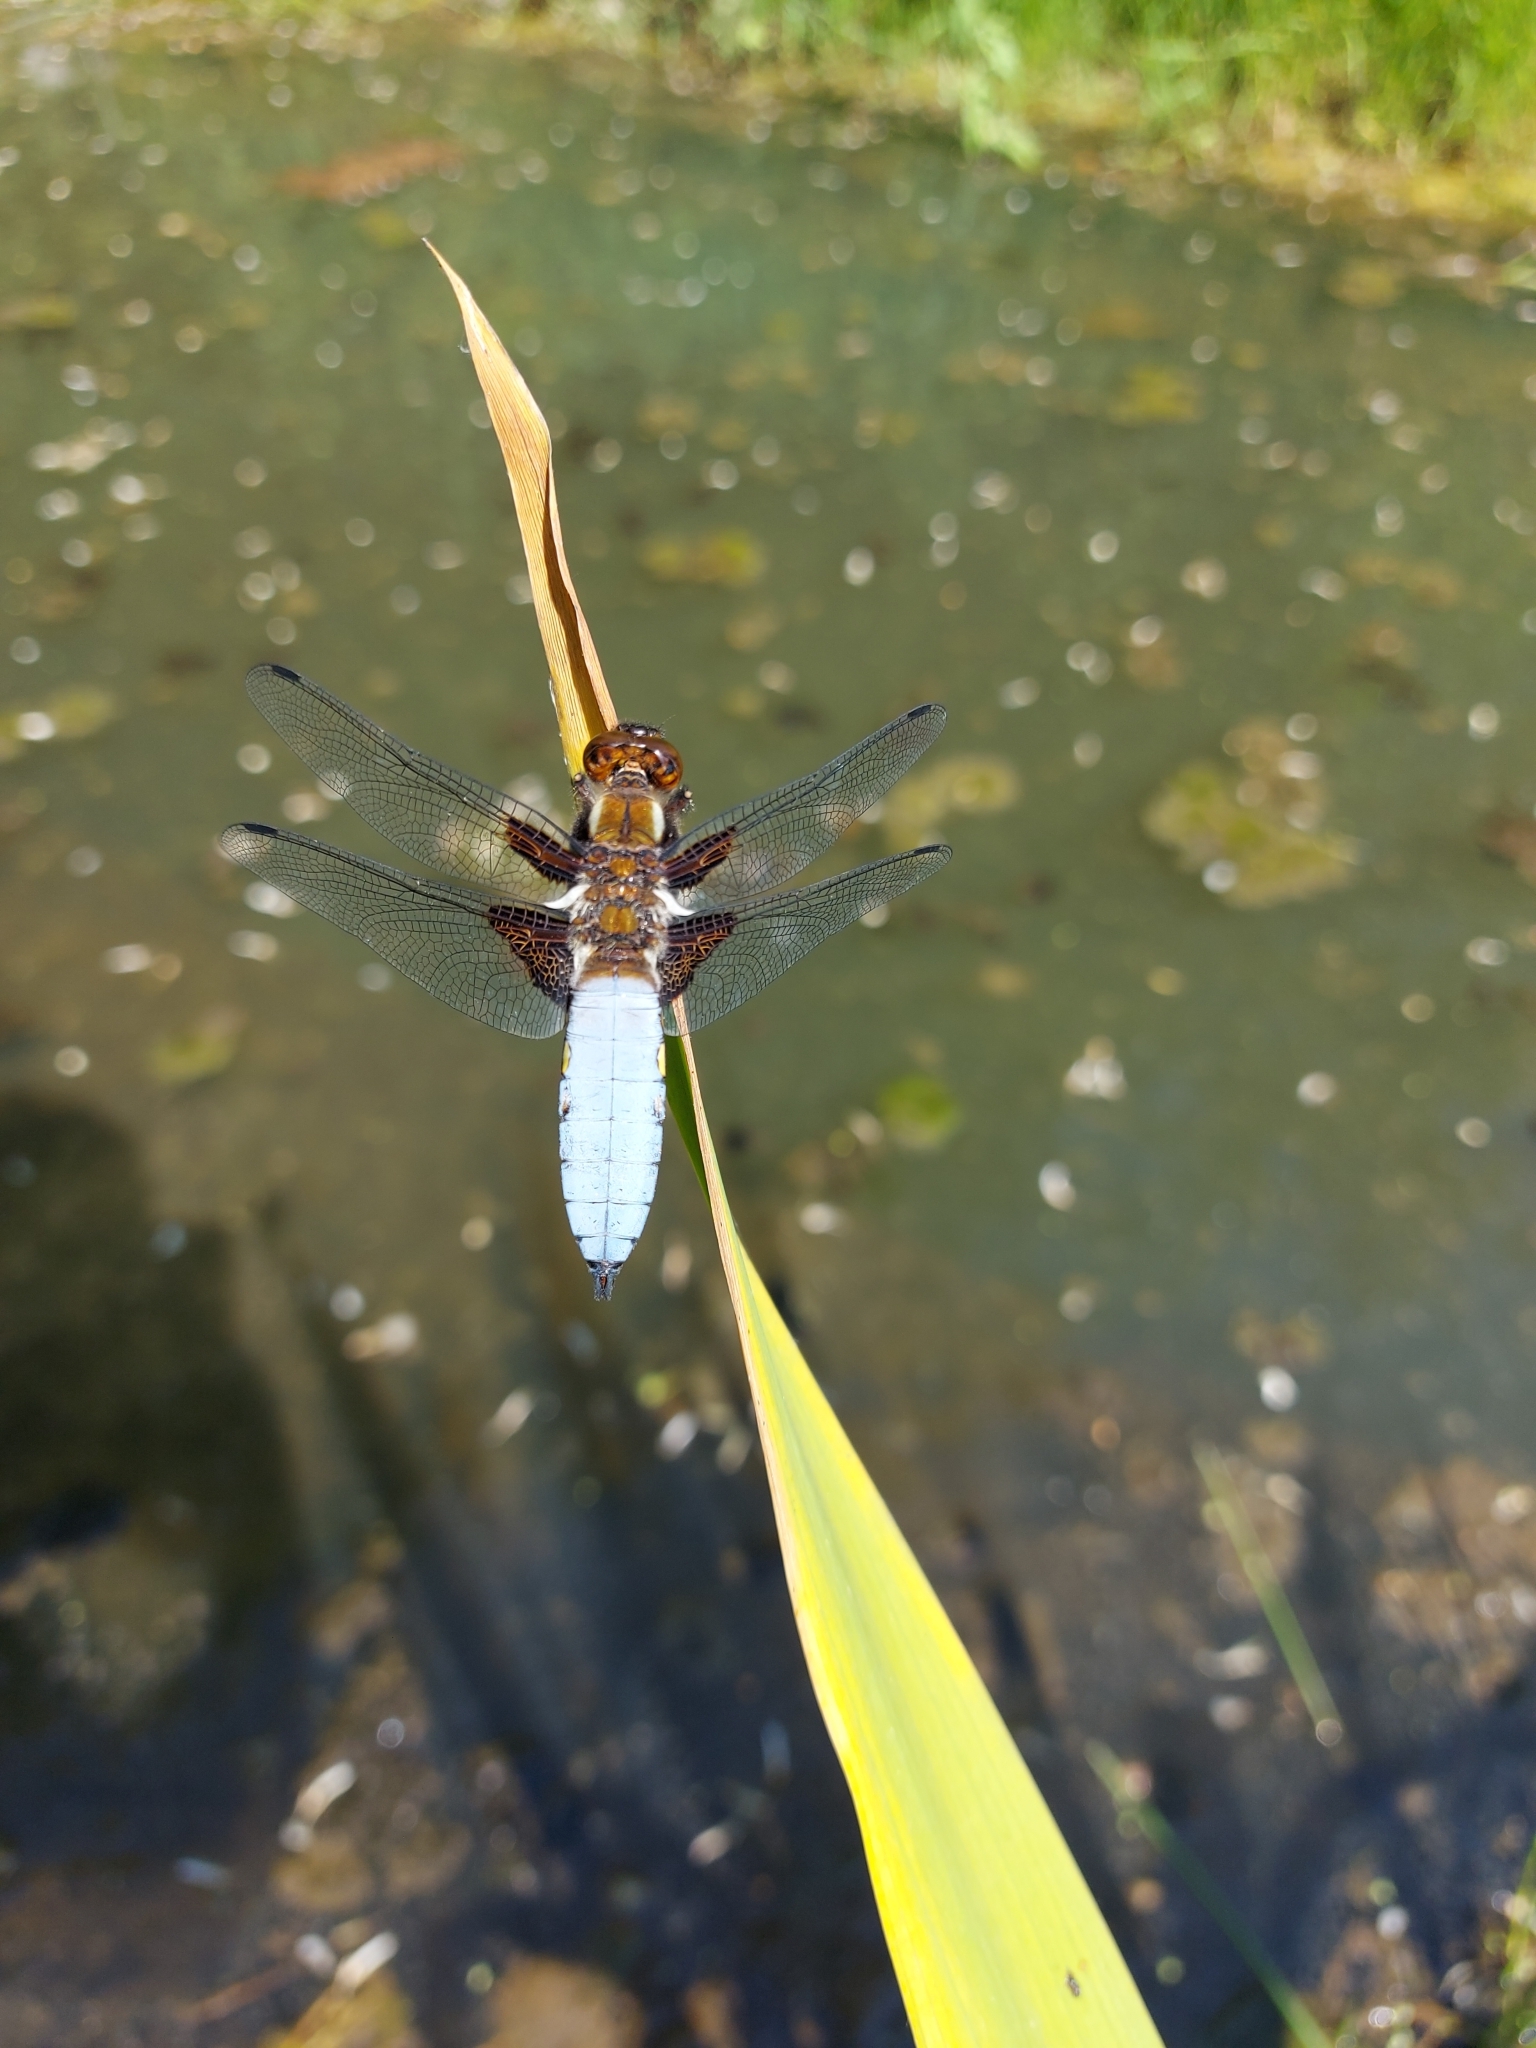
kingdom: Animalia
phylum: Arthropoda
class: Insecta
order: Odonata
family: Libellulidae
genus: Libellula
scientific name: Libellula depressa
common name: Broad-bodied chaser
